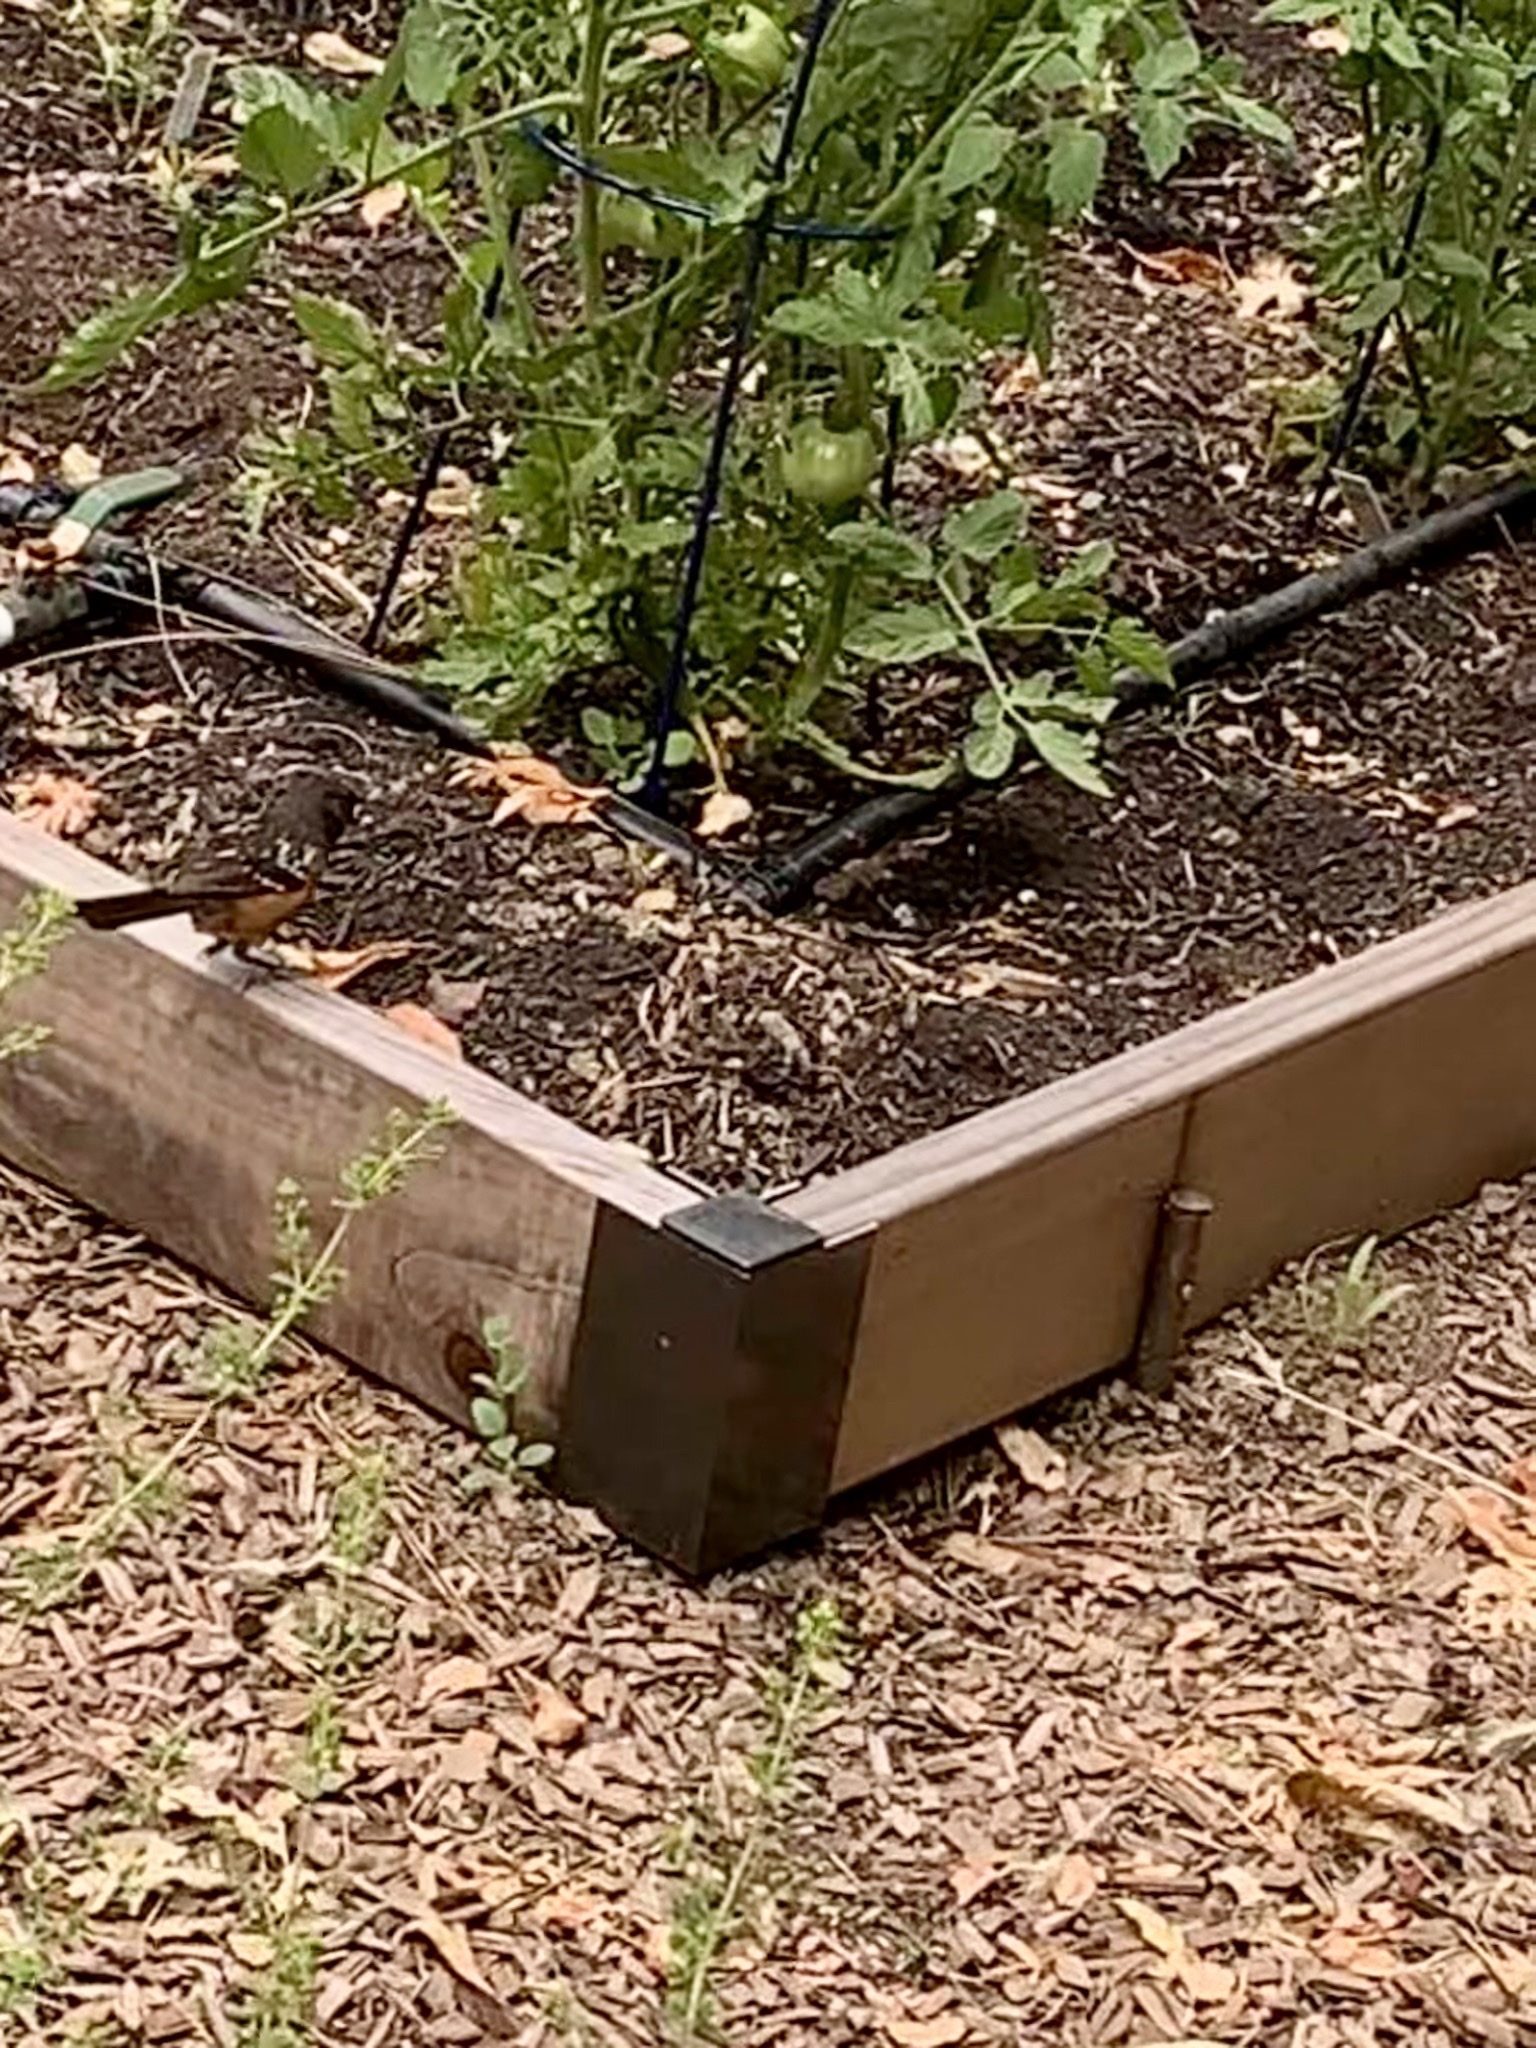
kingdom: Animalia
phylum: Chordata
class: Aves
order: Passeriformes
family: Passerellidae
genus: Pipilo
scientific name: Pipilo maculatus
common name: Spotted towhee
